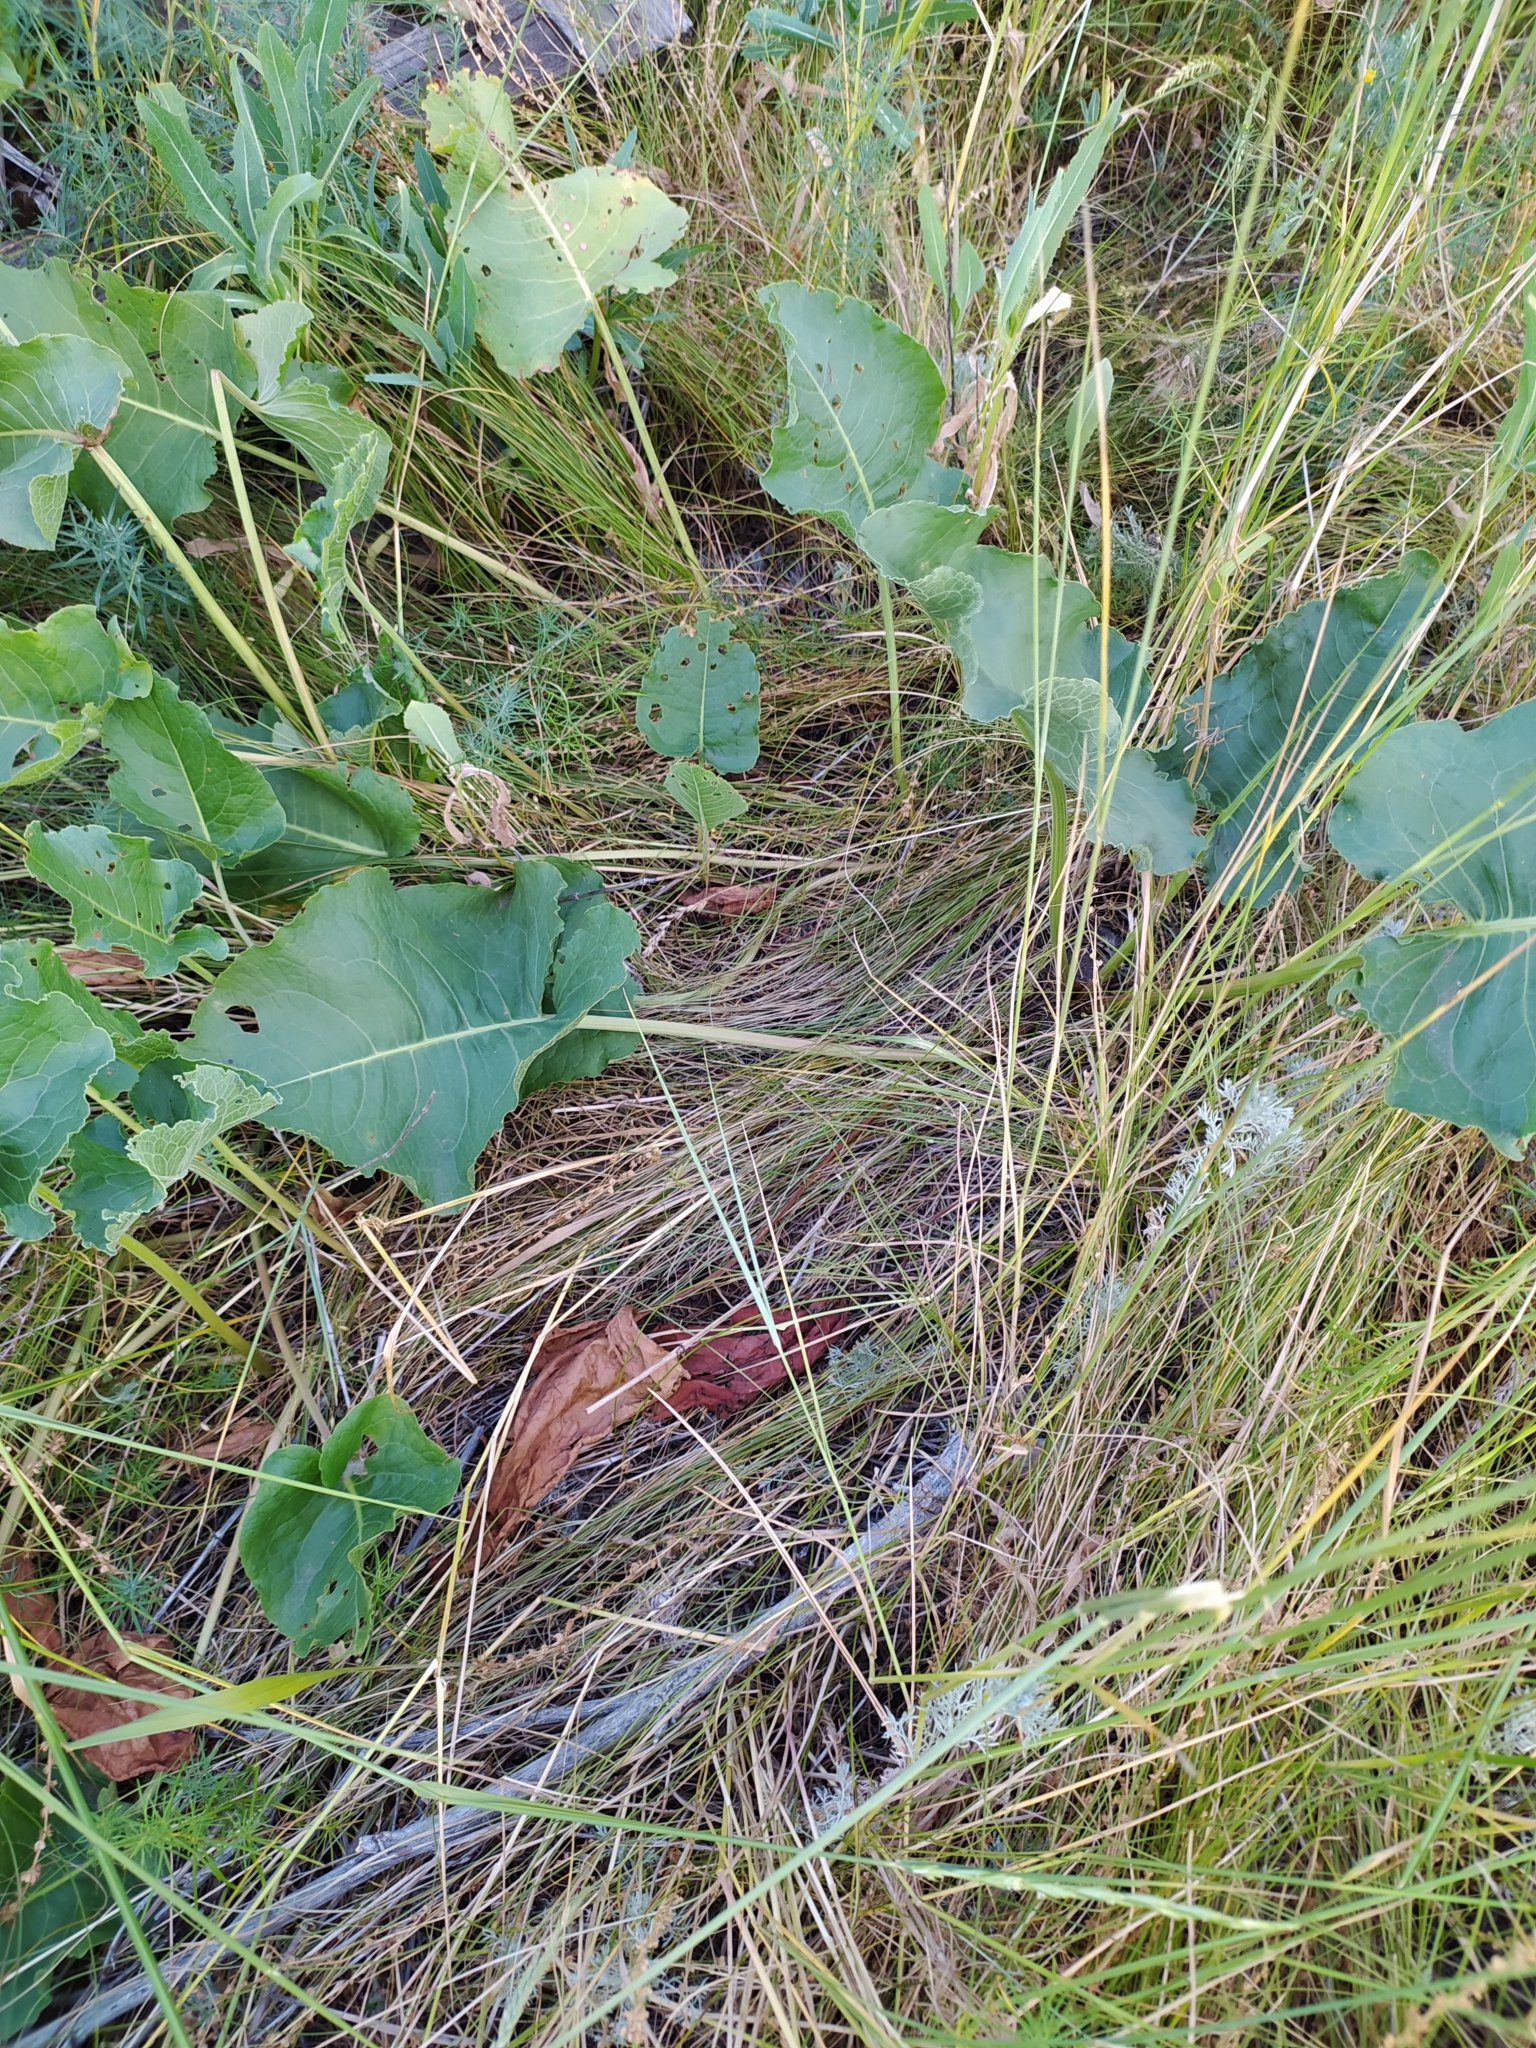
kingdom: Plantae
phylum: Tracheophyta
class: Magnoliopsida
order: Caryophyllales
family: Polygonaceae
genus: Rumex
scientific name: Rumex confertus
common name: Russian dock
